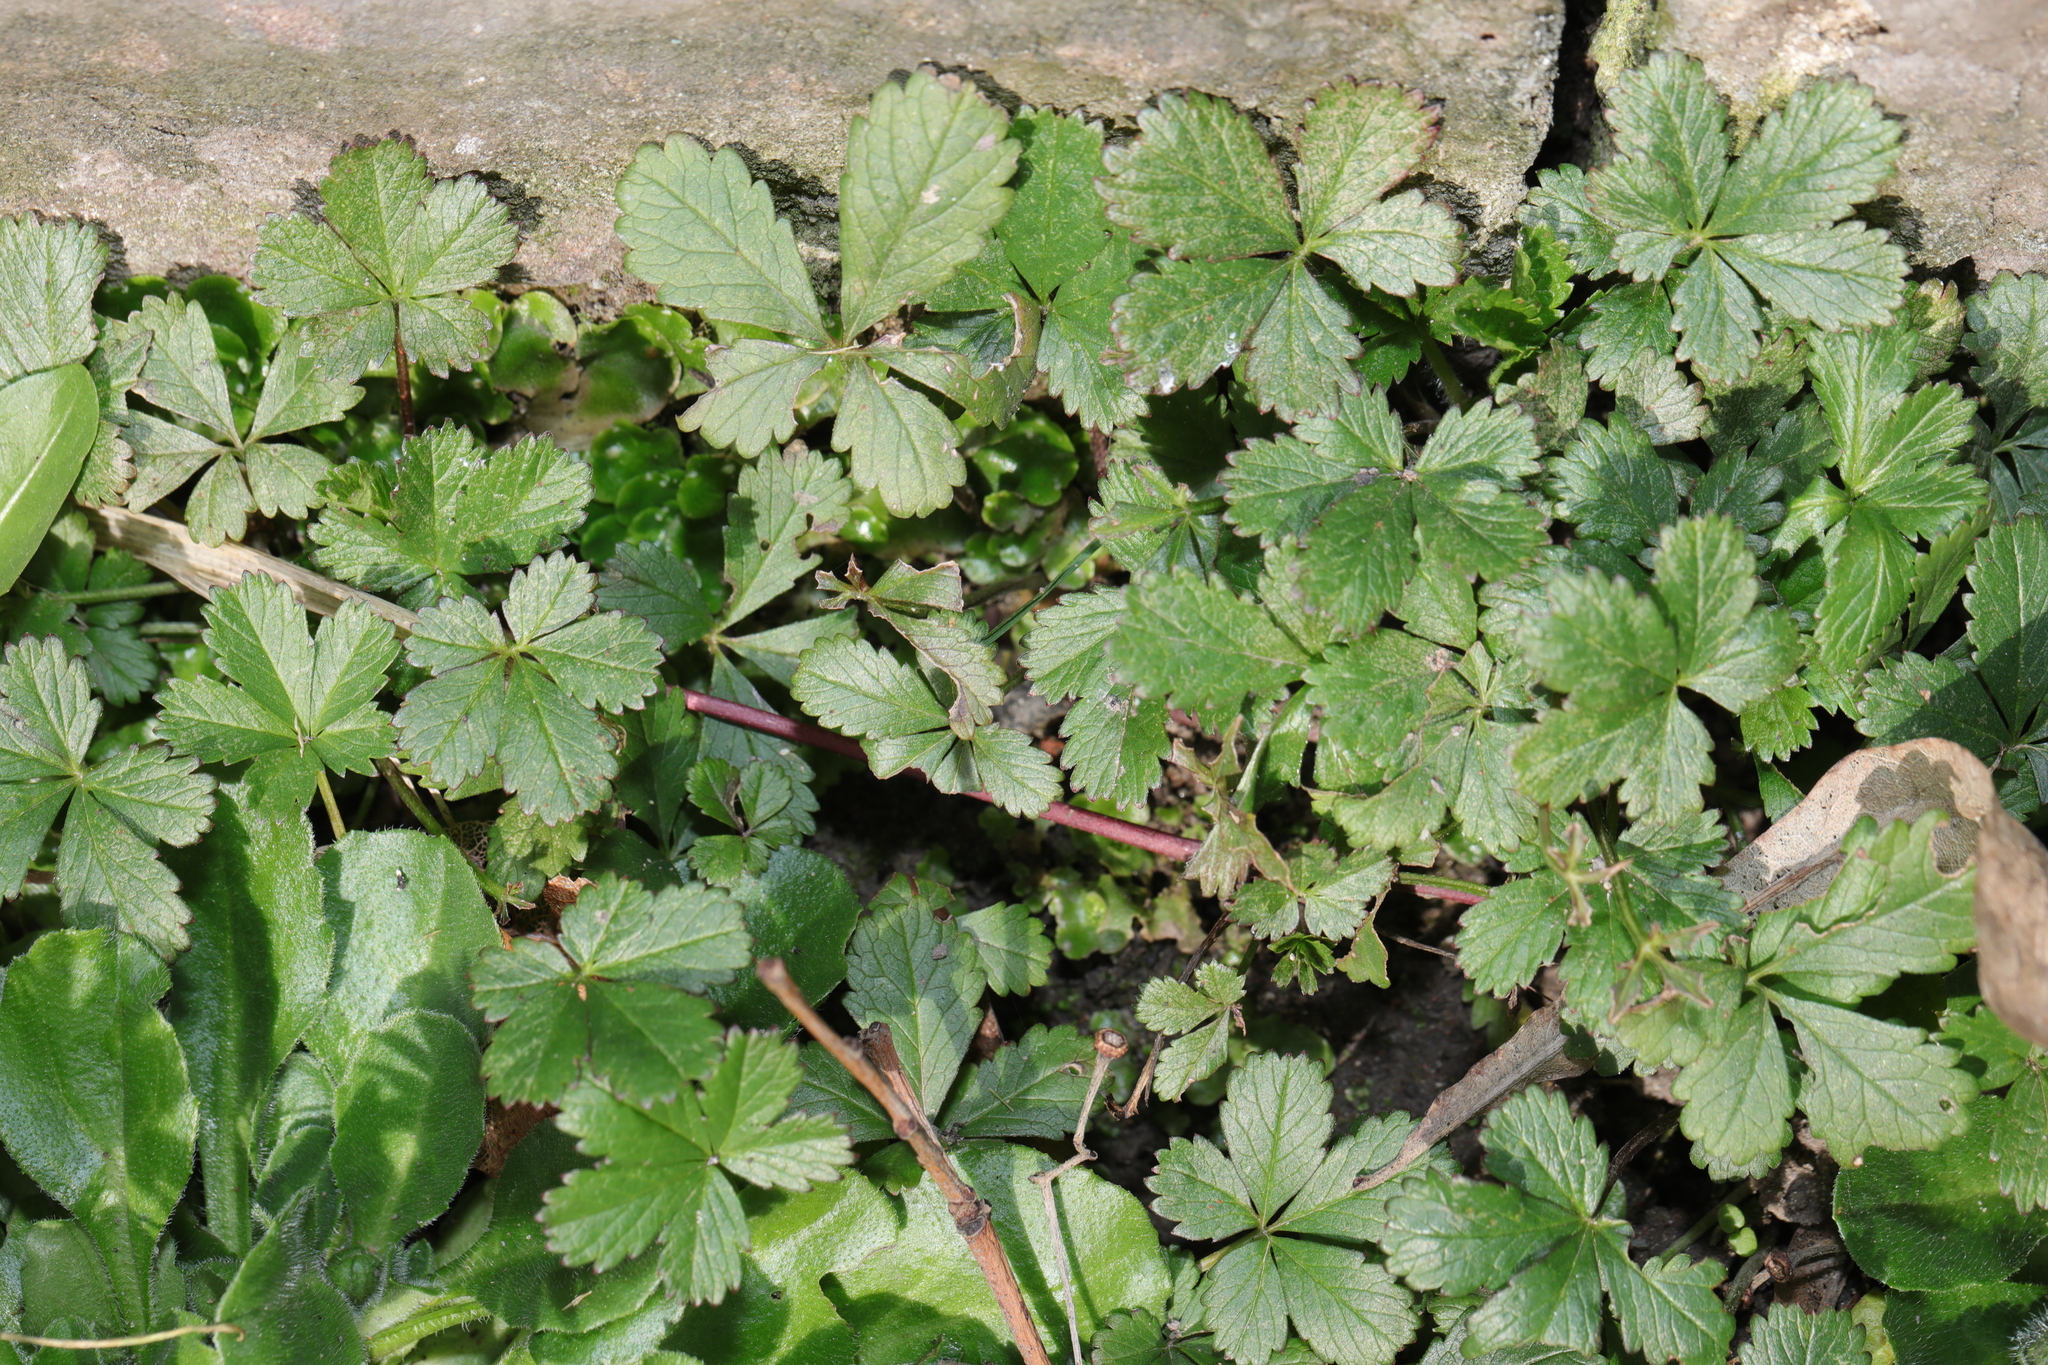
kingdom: Plantae
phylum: Tracheophyta
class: Magnoliopsida
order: Rosales
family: Rosaceae
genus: Potentilla
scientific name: Potentilla reptans
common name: Creeping cinquefoil
